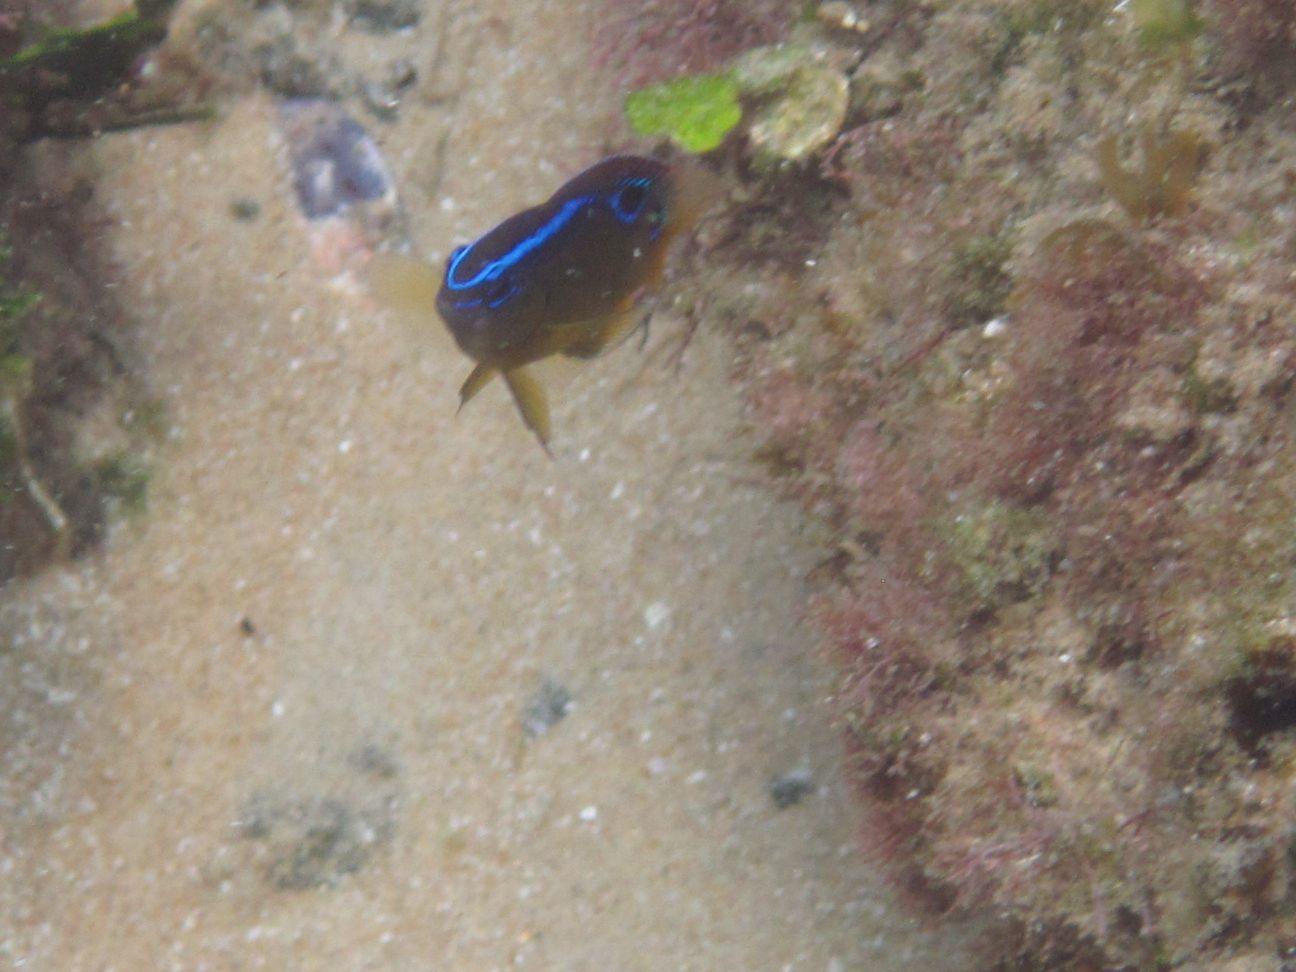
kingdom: Animalia
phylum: Chordata
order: Perciformes
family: Pomacentridae
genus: Chrysiptera
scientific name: Chrysiptera brownriggii
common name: Surge demoiselle
